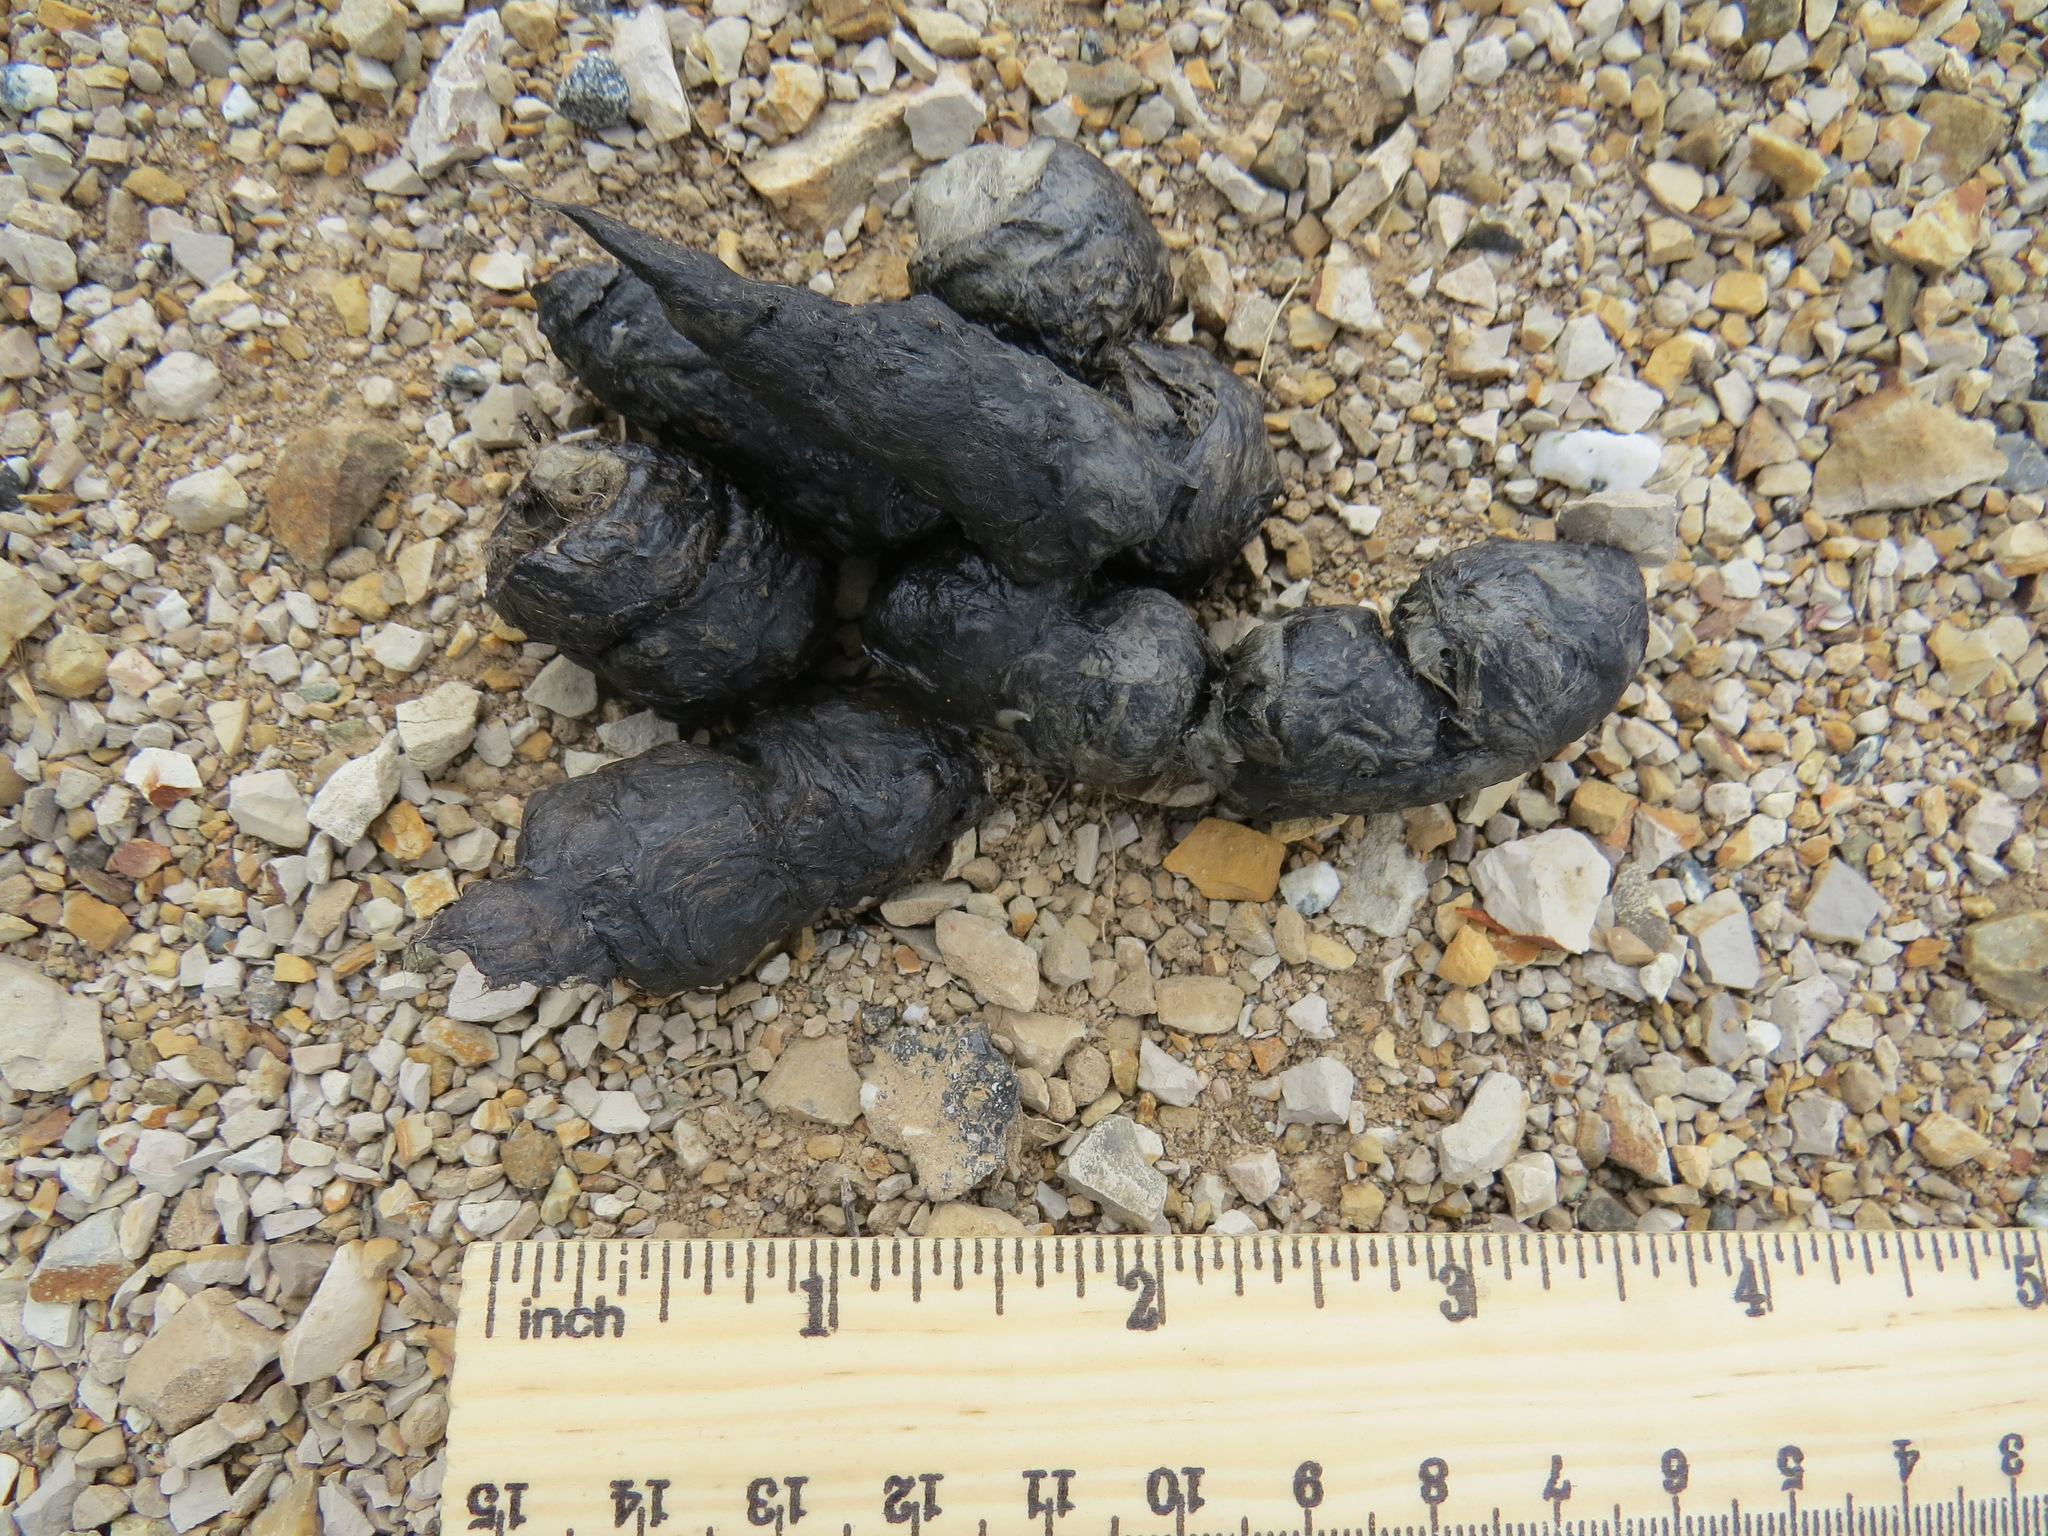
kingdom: Animalia
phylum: Chordata
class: Mammalia
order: Carnivora
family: Felidae
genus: Lynx
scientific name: Lynx rufus
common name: Bobcat
